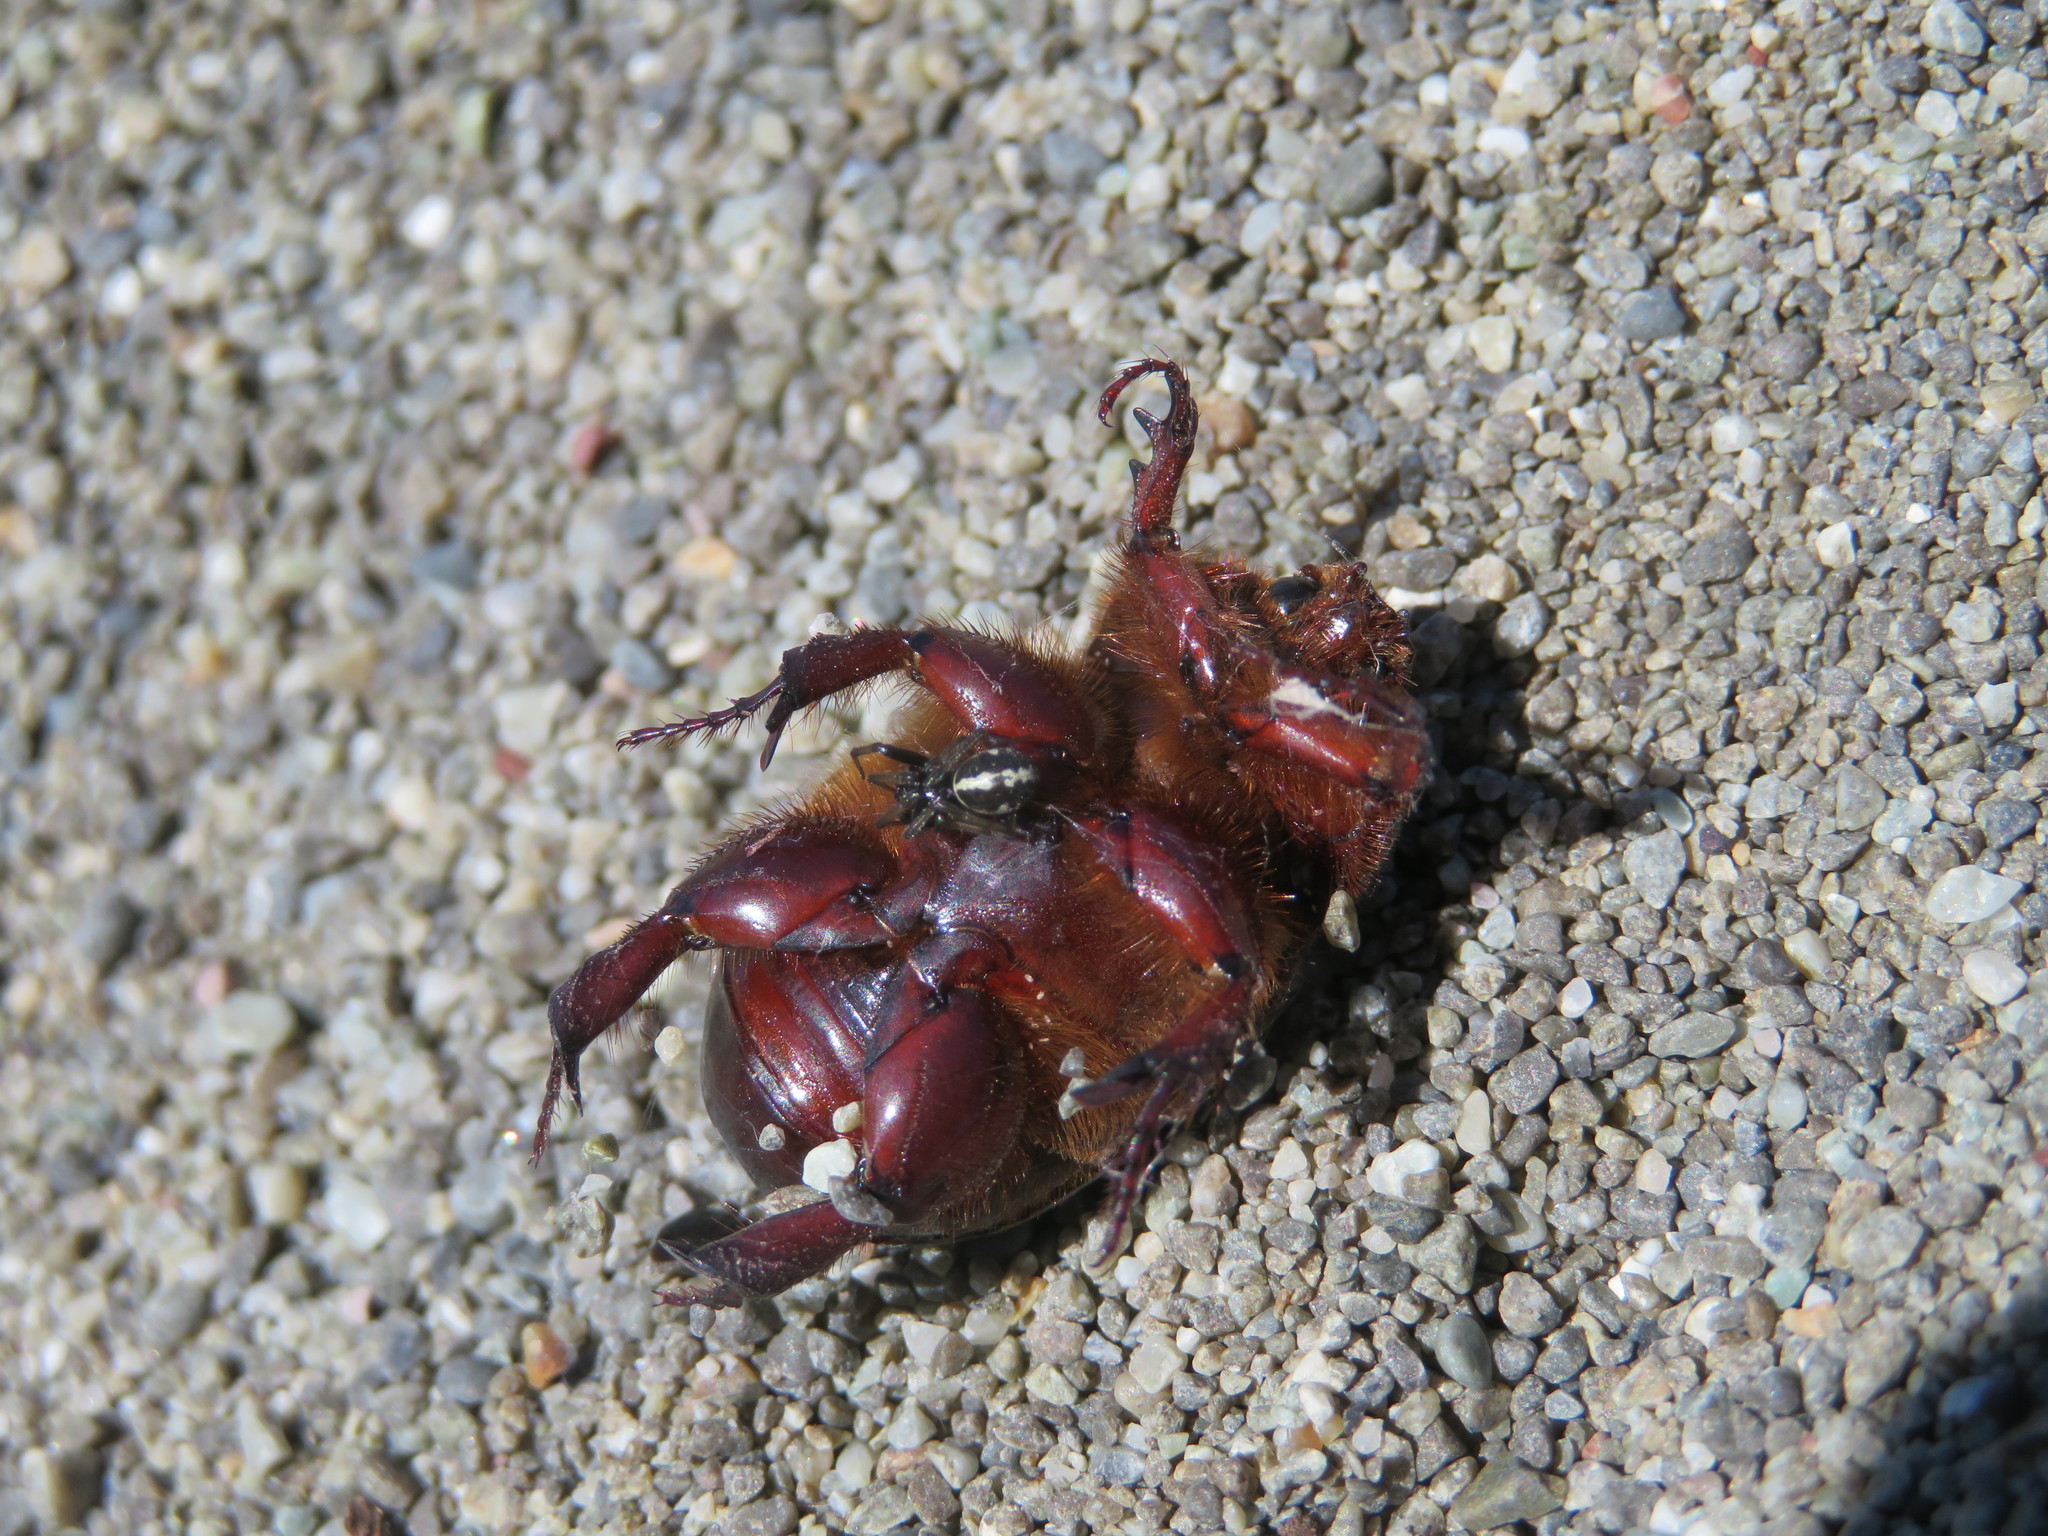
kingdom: Animalia
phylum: Arthropoda
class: Arachnida
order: Araneae
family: Theridiidae
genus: Steatoda
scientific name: Steatoda lepida
